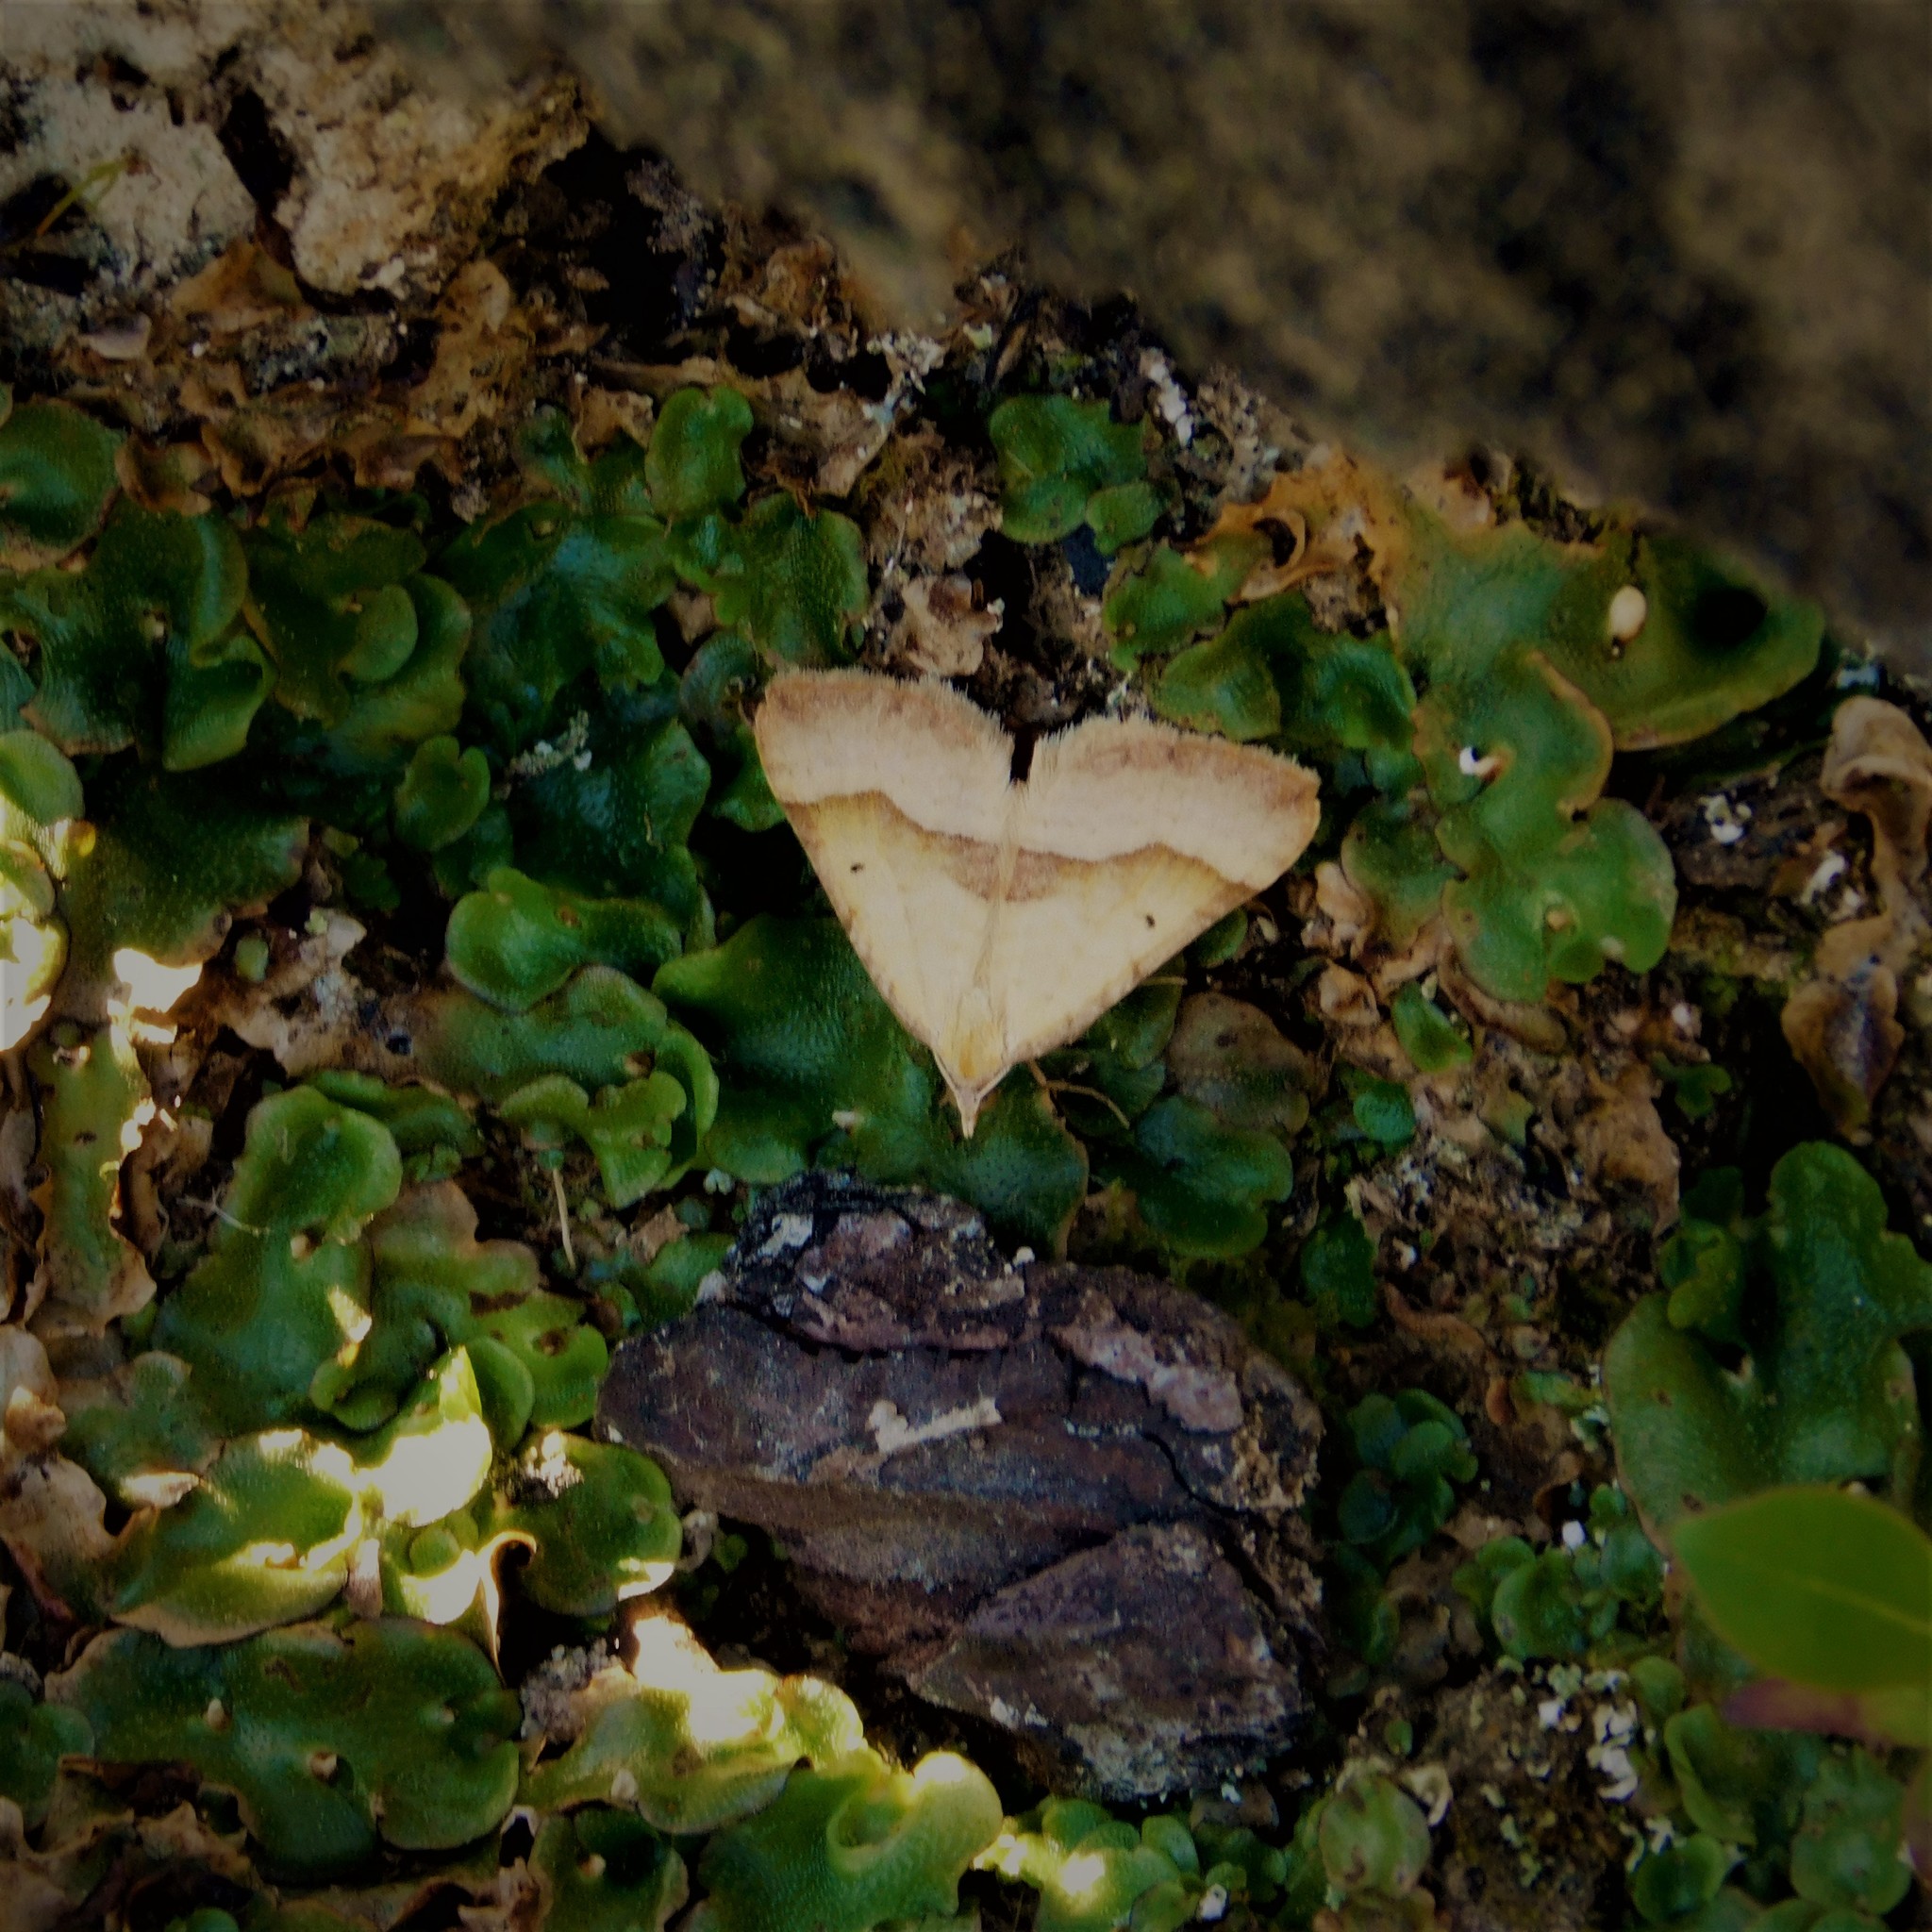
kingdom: Animalia
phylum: Arthropoda
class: Insecta
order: Lepidoptera
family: Geometridae
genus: Anachloris
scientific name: Anachloris subochraria
